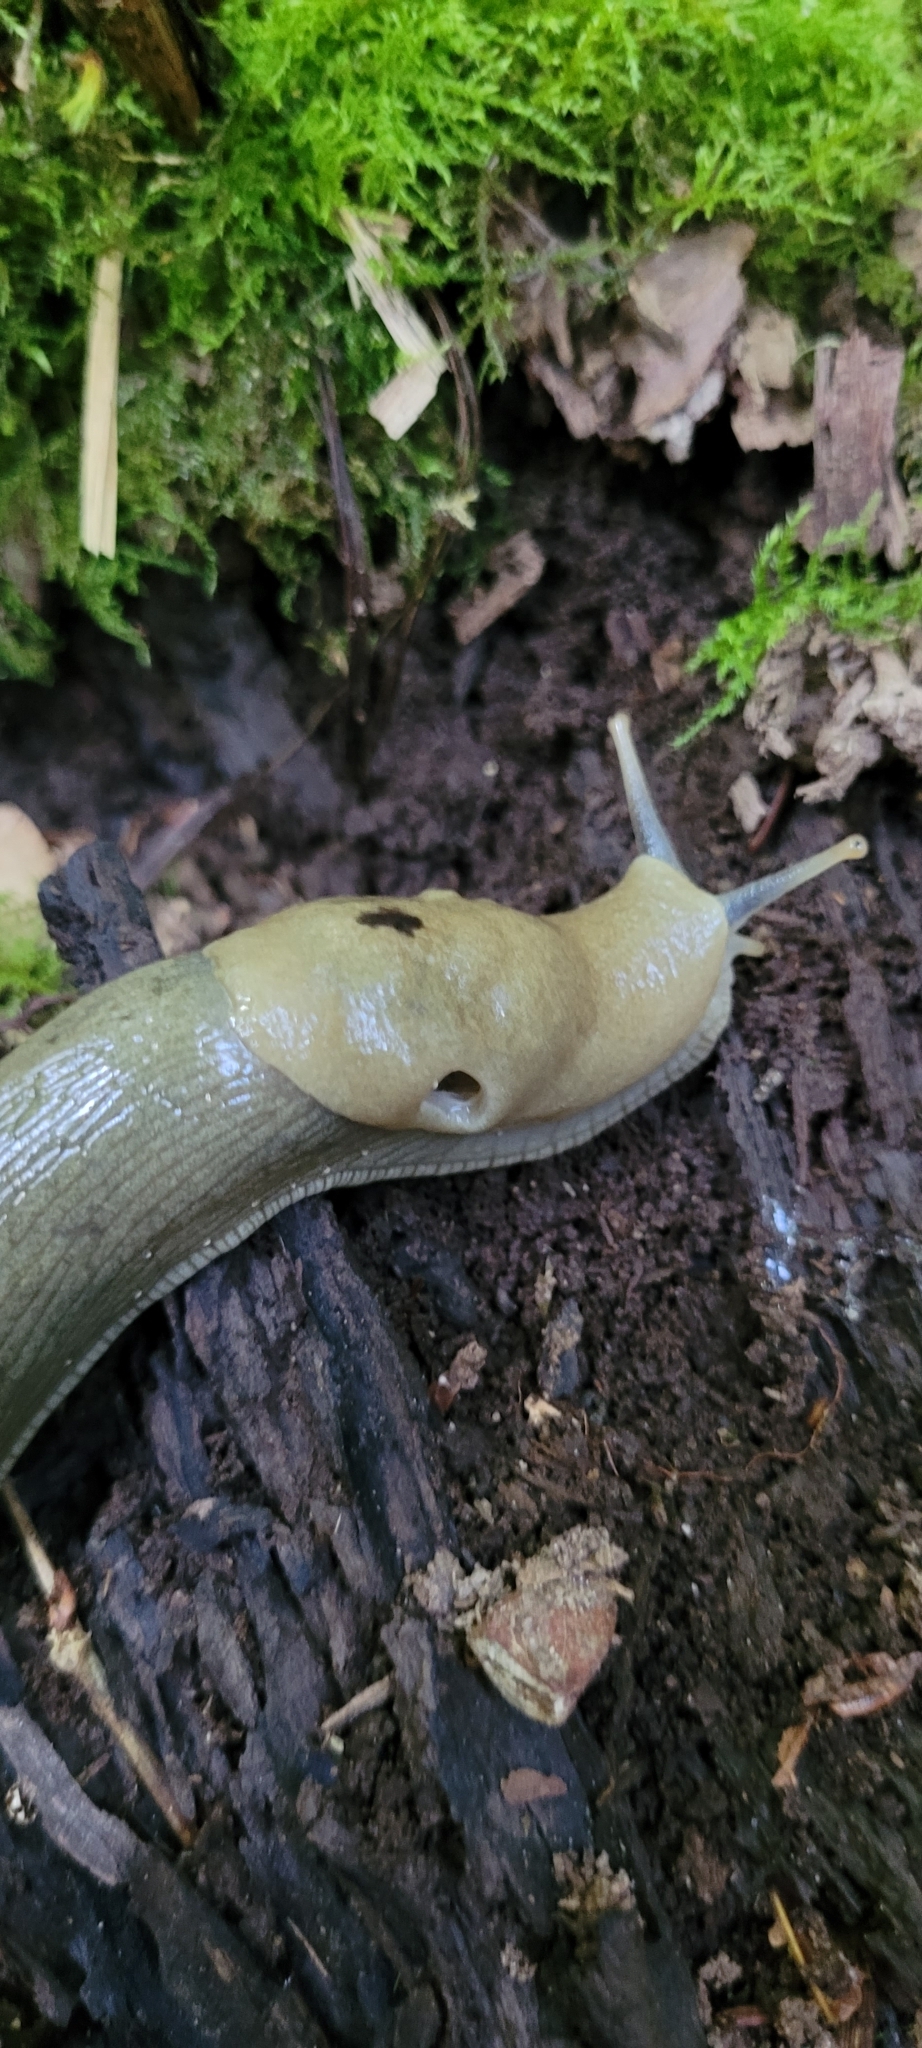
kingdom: Animalia
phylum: Mollusca
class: Gastropoda
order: Stylommatophora
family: Ariolimacidae
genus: Ariolimax
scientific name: Ariolimax columbianus
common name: Pacific banana slug
